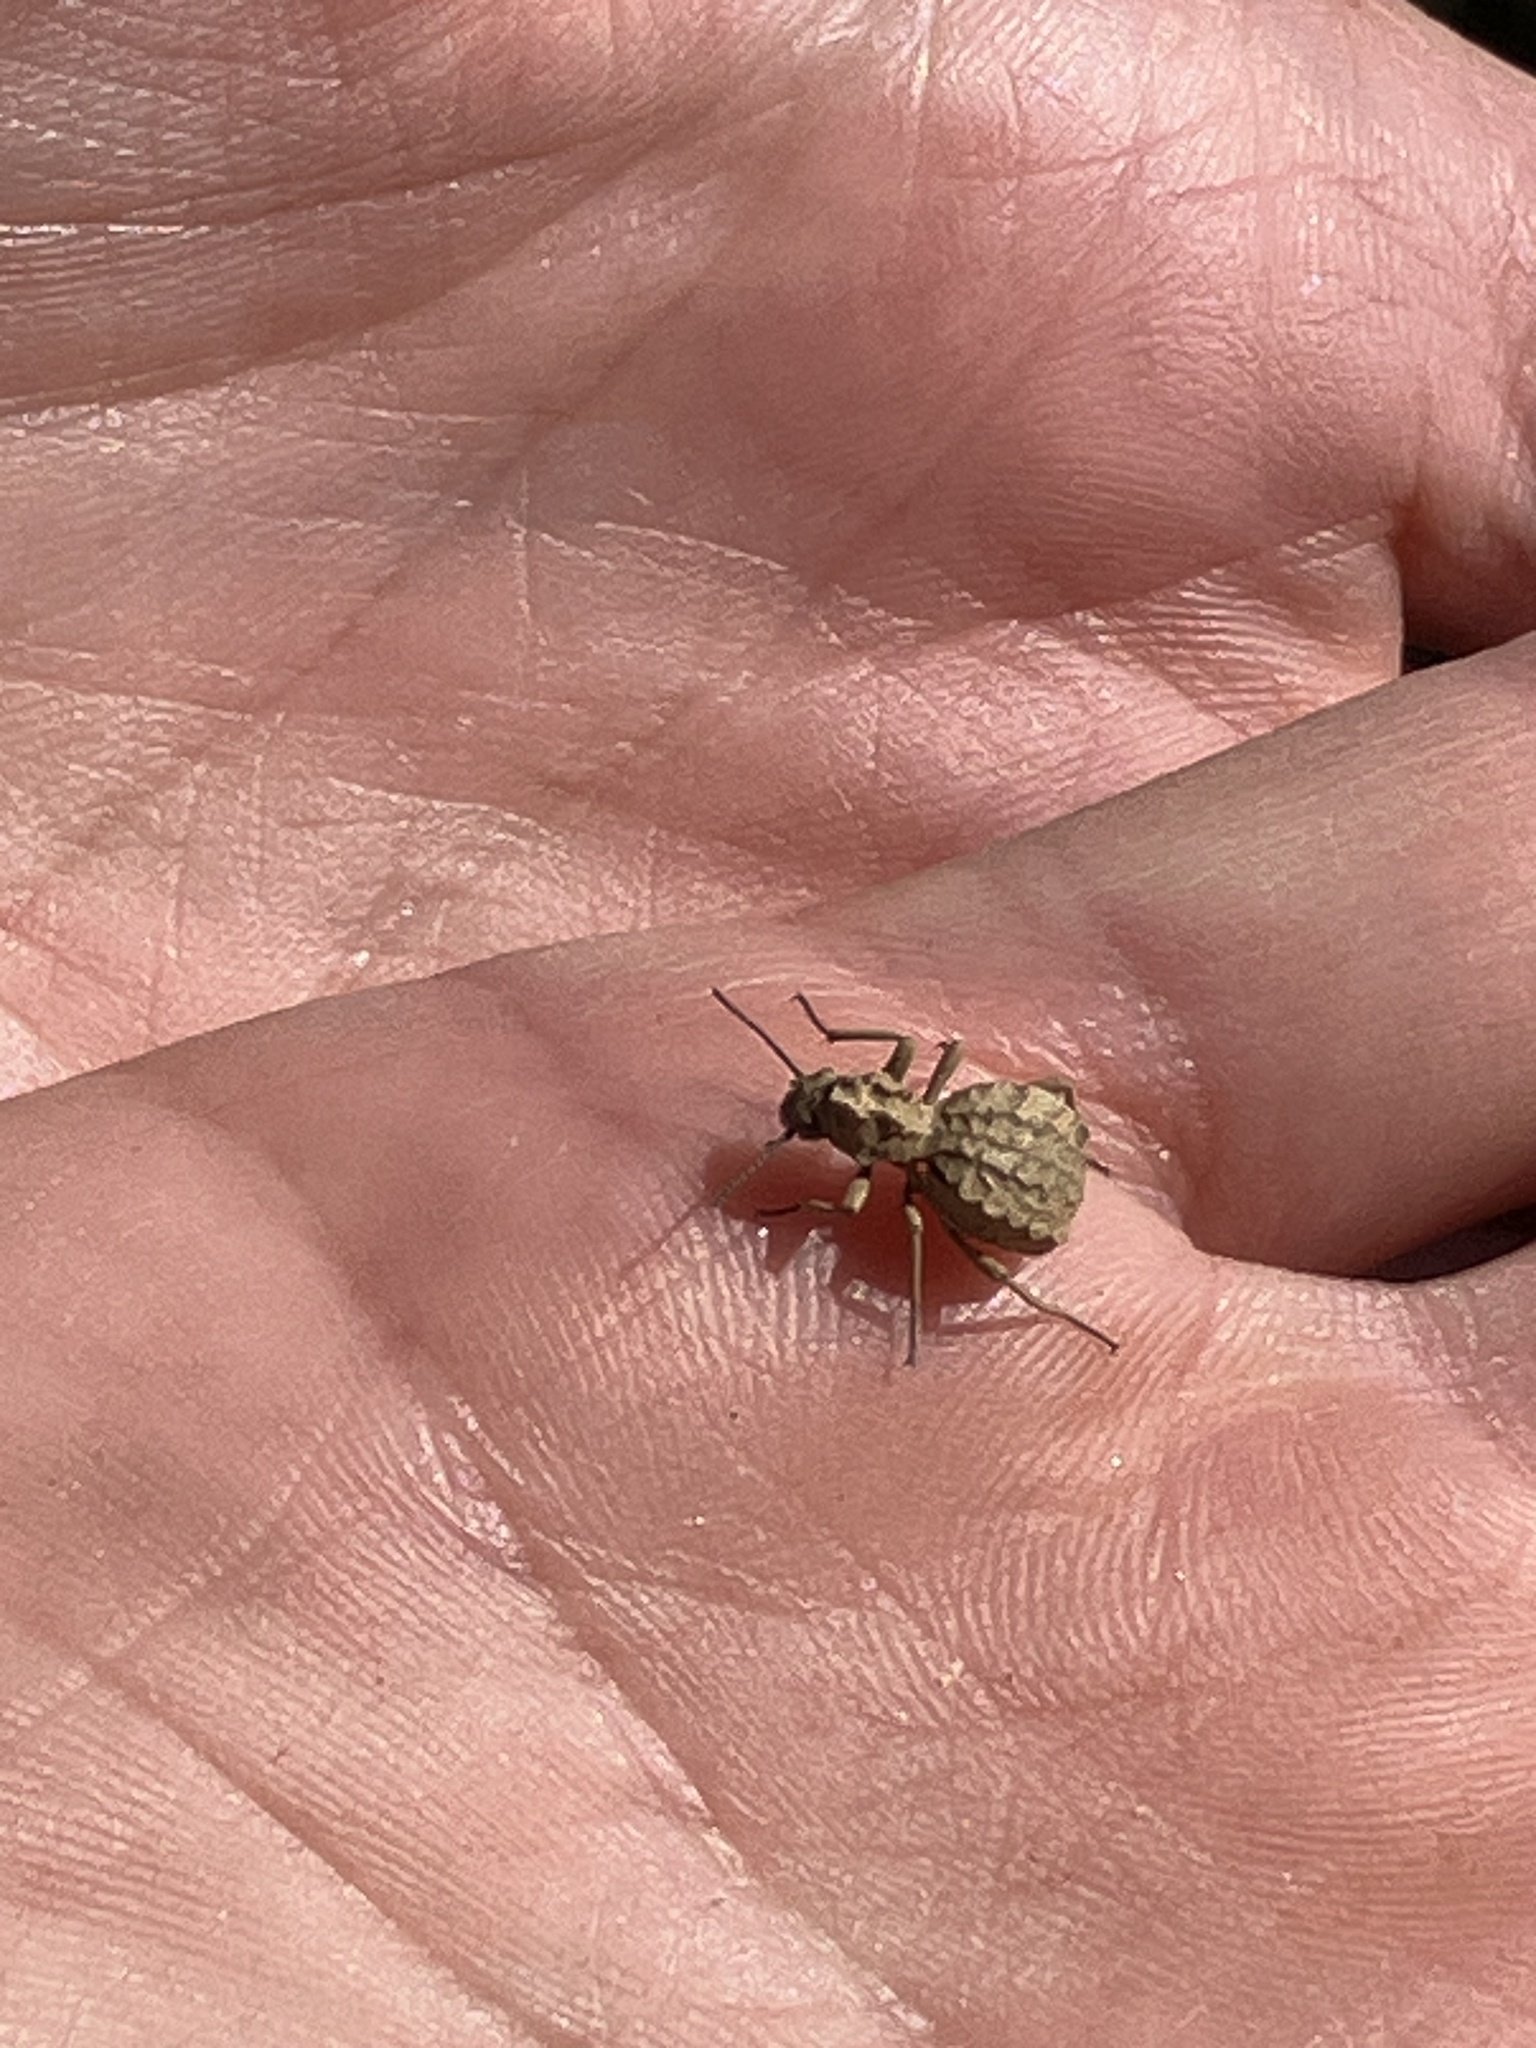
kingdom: Animalia
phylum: Arthropoda
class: Insecta
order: Coleoptera
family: Tenebrionidae
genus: Cyrtoderes
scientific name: Cyrtoderes cristatus
